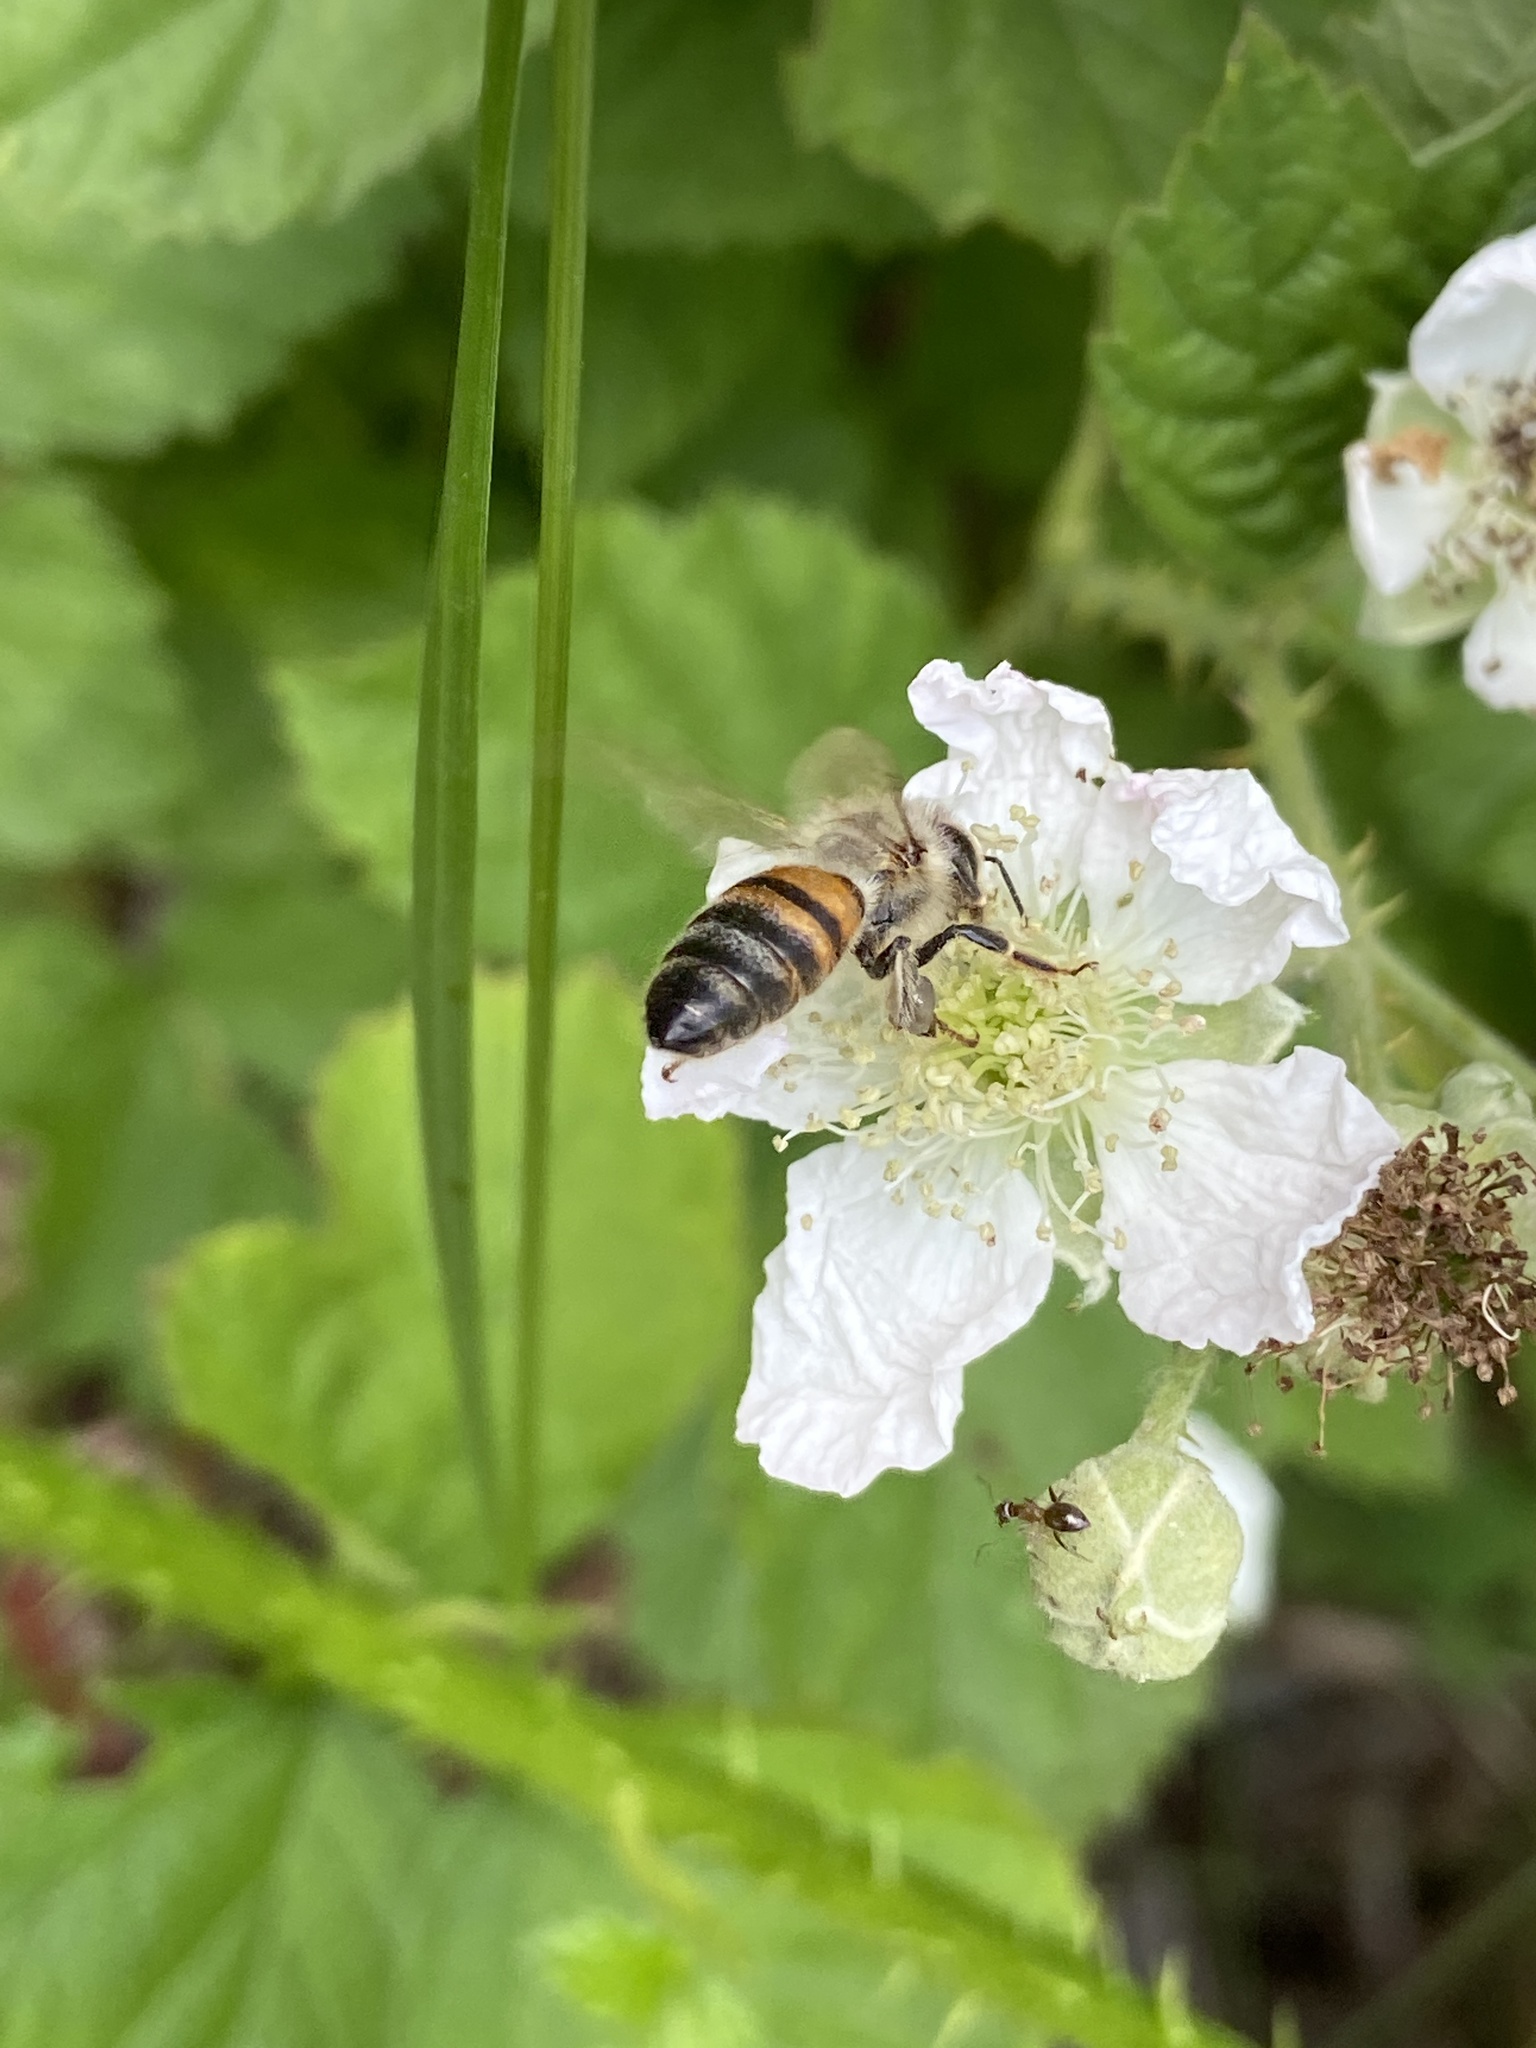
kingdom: Animalia
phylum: Arthropoda
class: Insecta
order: Hymenoptera
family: Apidae
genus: Apis
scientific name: Apis mellifera
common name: Honey bee
